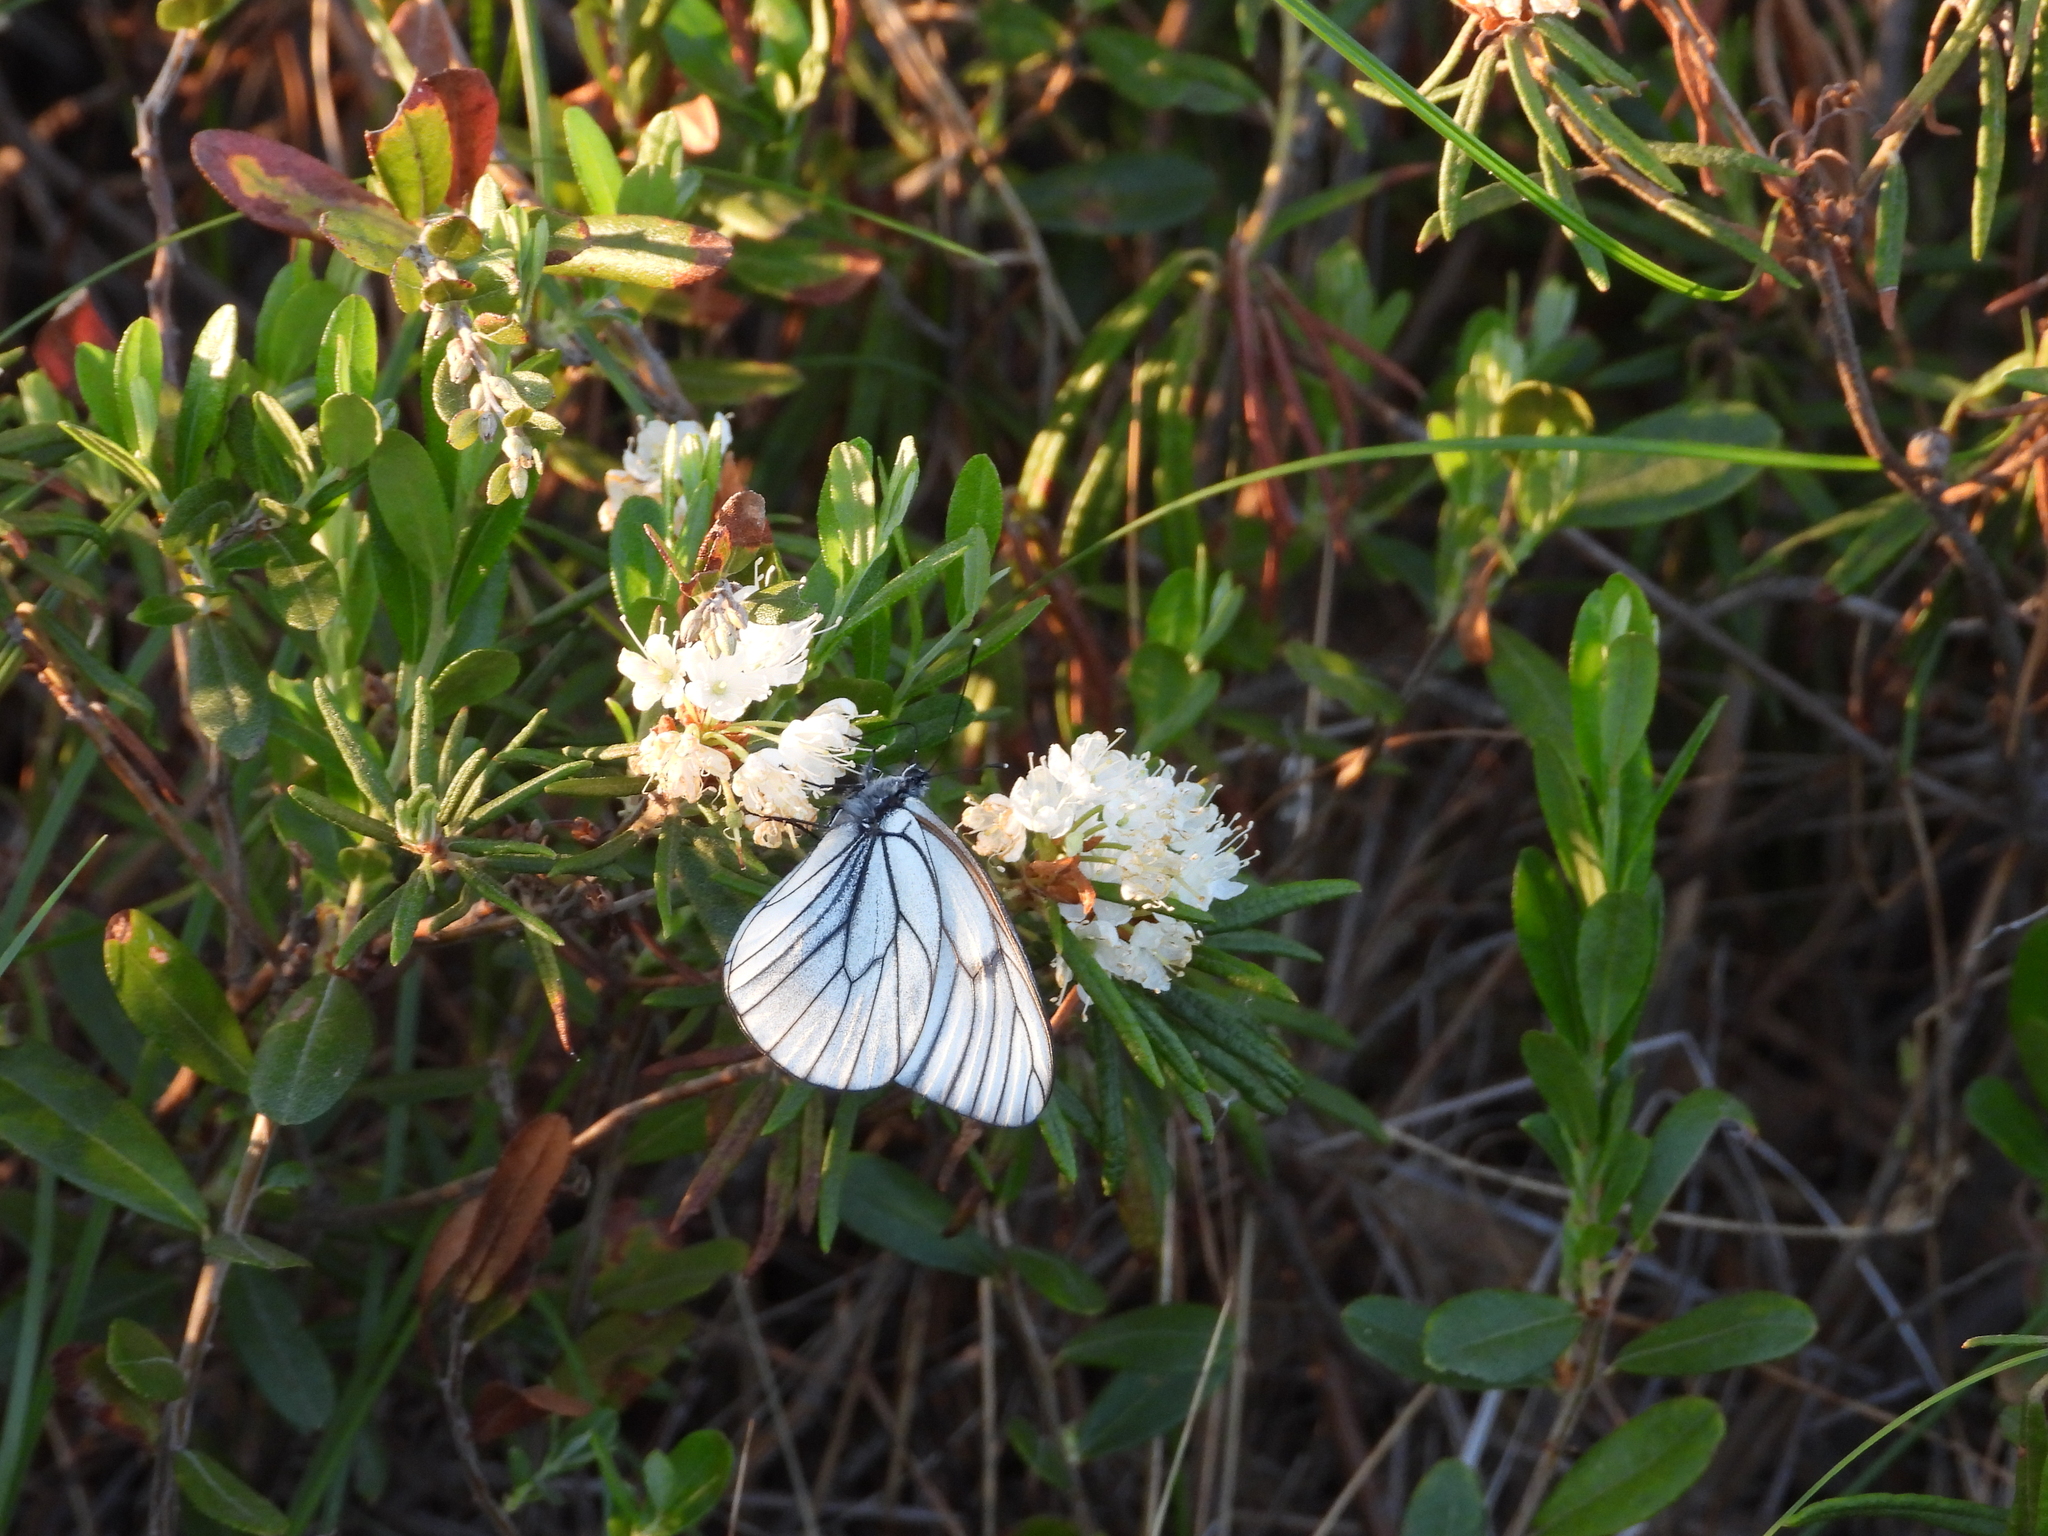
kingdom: Animalia
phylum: Arthropoda
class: Insecta
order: Lepidoptera
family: Pieridae
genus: Aporia
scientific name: Aporia crataegi
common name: Black-veined white
